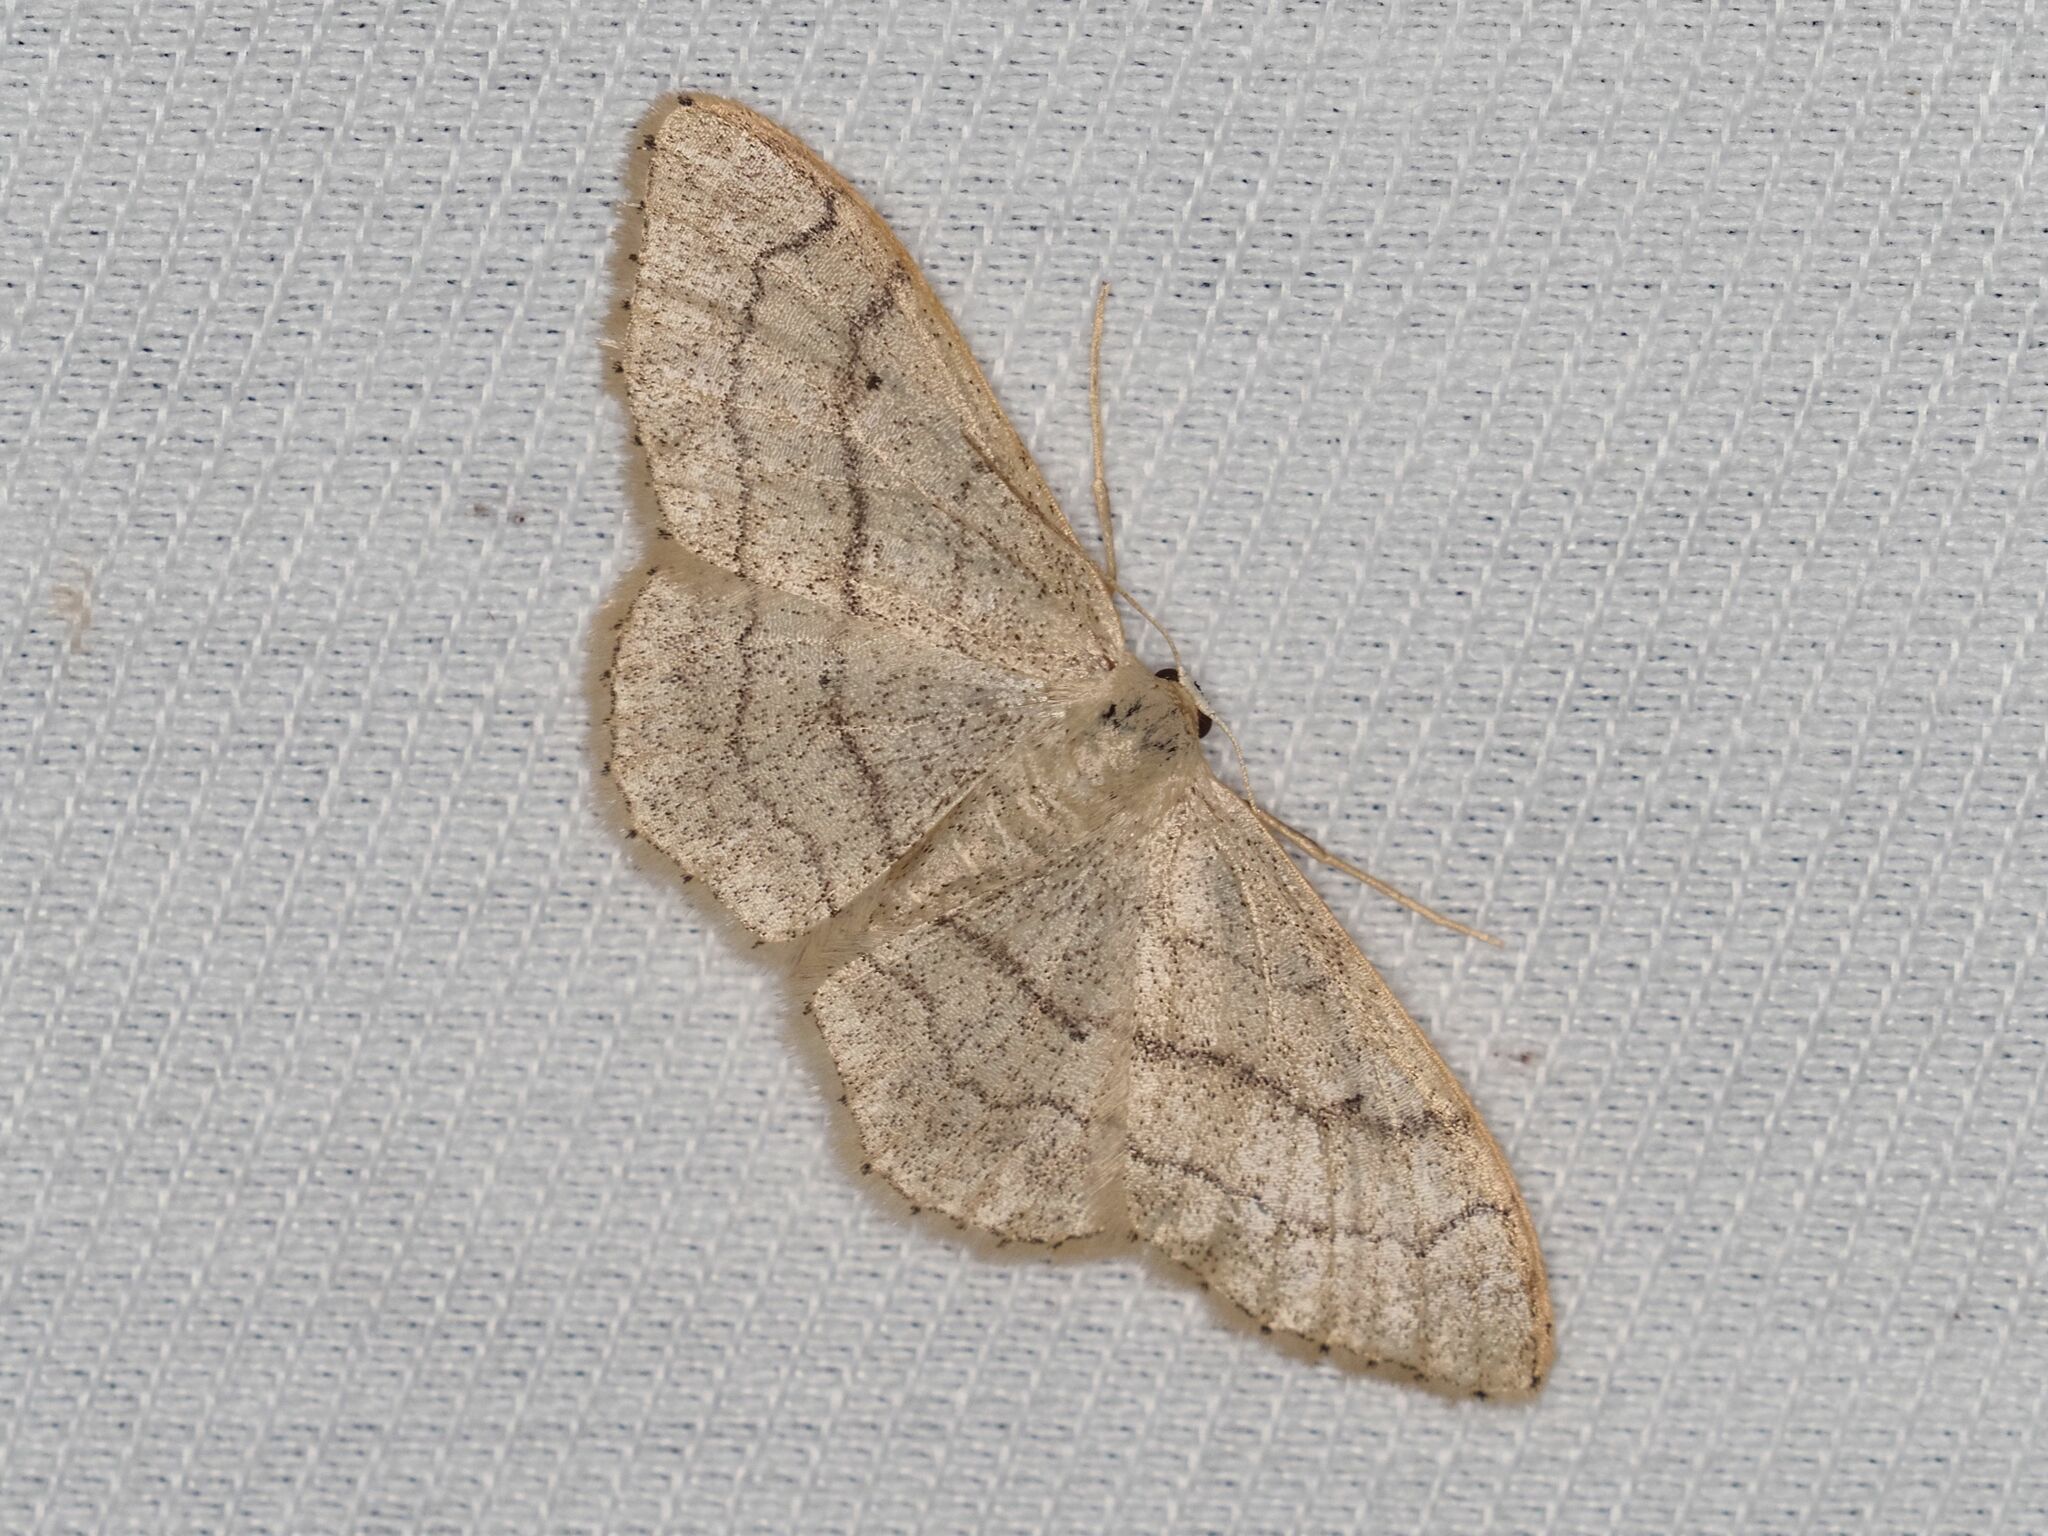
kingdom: Animalia
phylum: Arthropoda
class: Insecta
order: Lepidoptera
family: Geometridae
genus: Idaea
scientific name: Idaea aversata
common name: Riband wave
